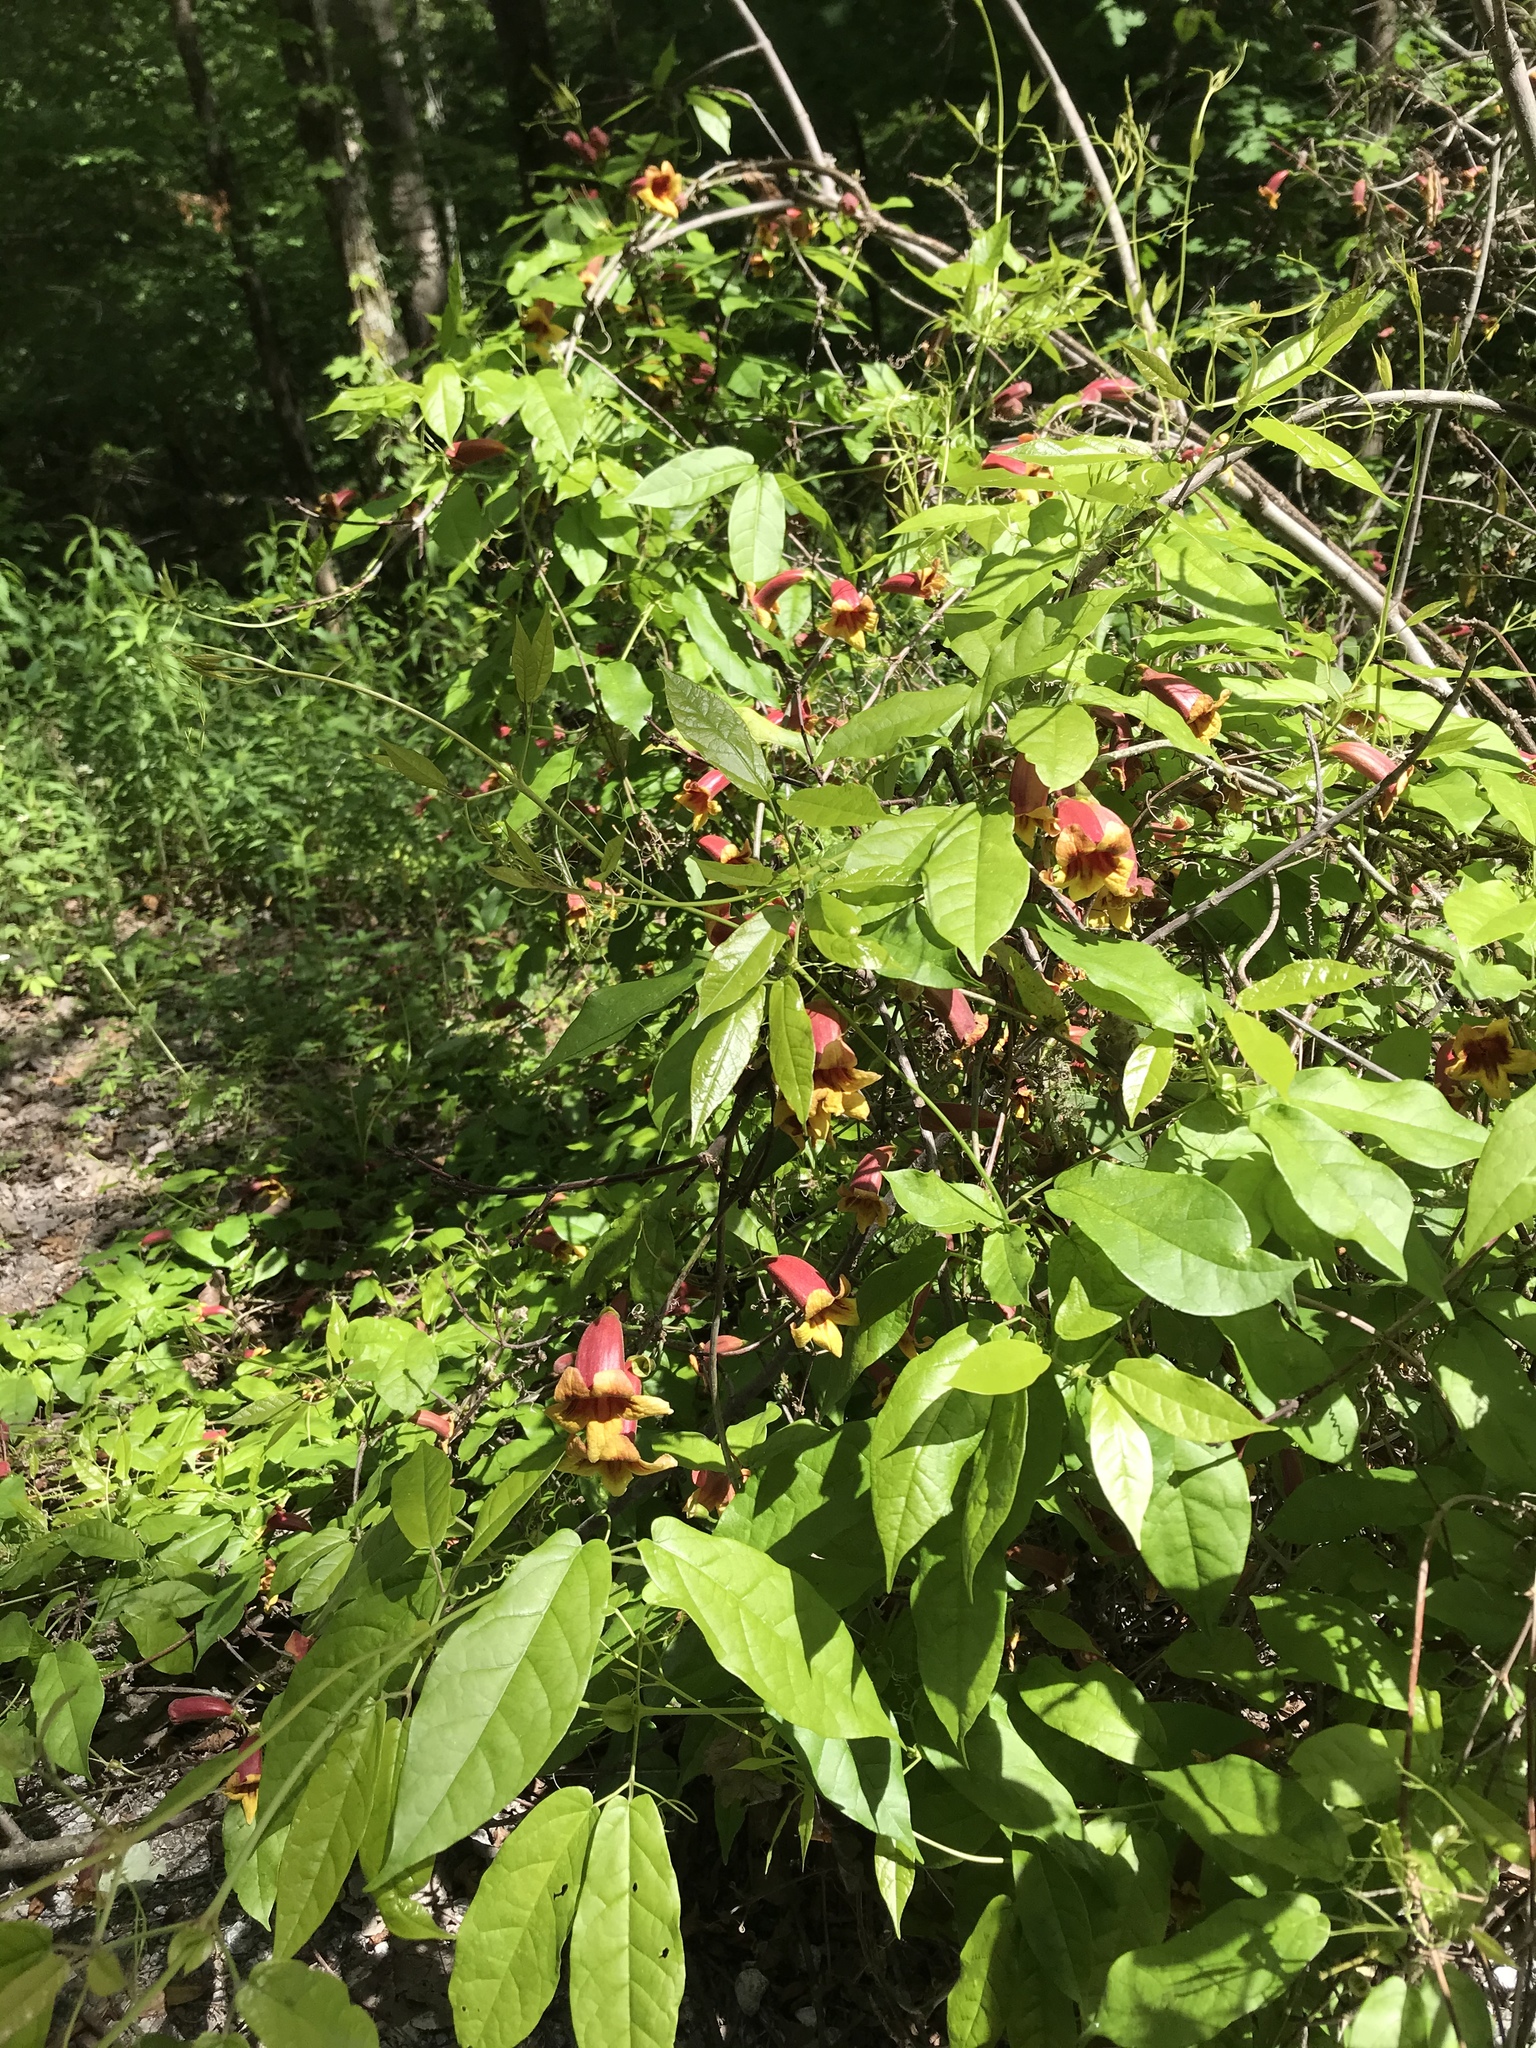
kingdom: Plantae
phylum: Tracheophyta
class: Magnoliopsida
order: Lamiales
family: Bignoniaceae
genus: Bignonia
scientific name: Bignonia capreolata
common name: Crossvine
